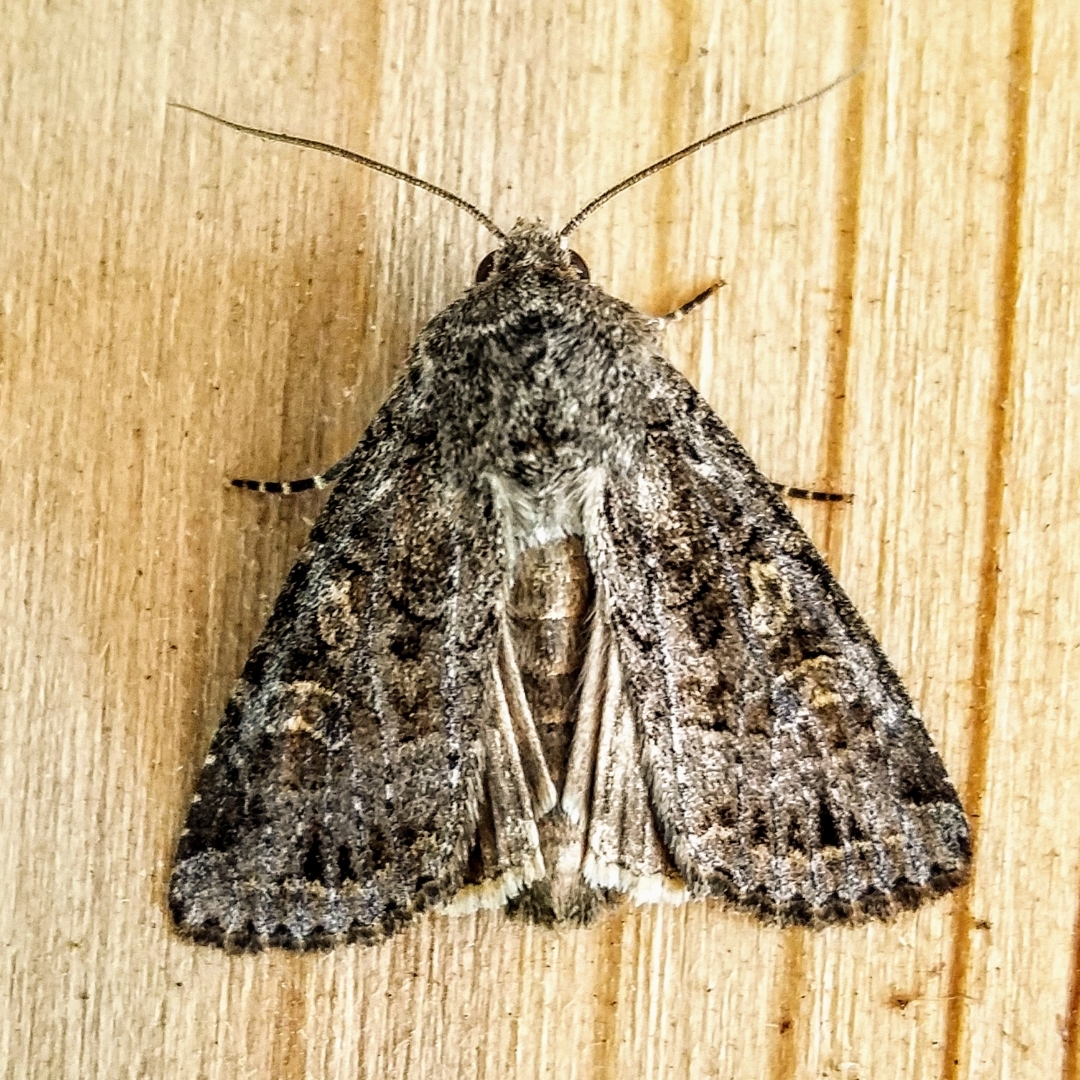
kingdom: Animalia
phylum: Arthropoda
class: Insecta
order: Lepidoptera
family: Noctuidae
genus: Apamea
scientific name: Apamea devastator
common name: Glassy cutworm
